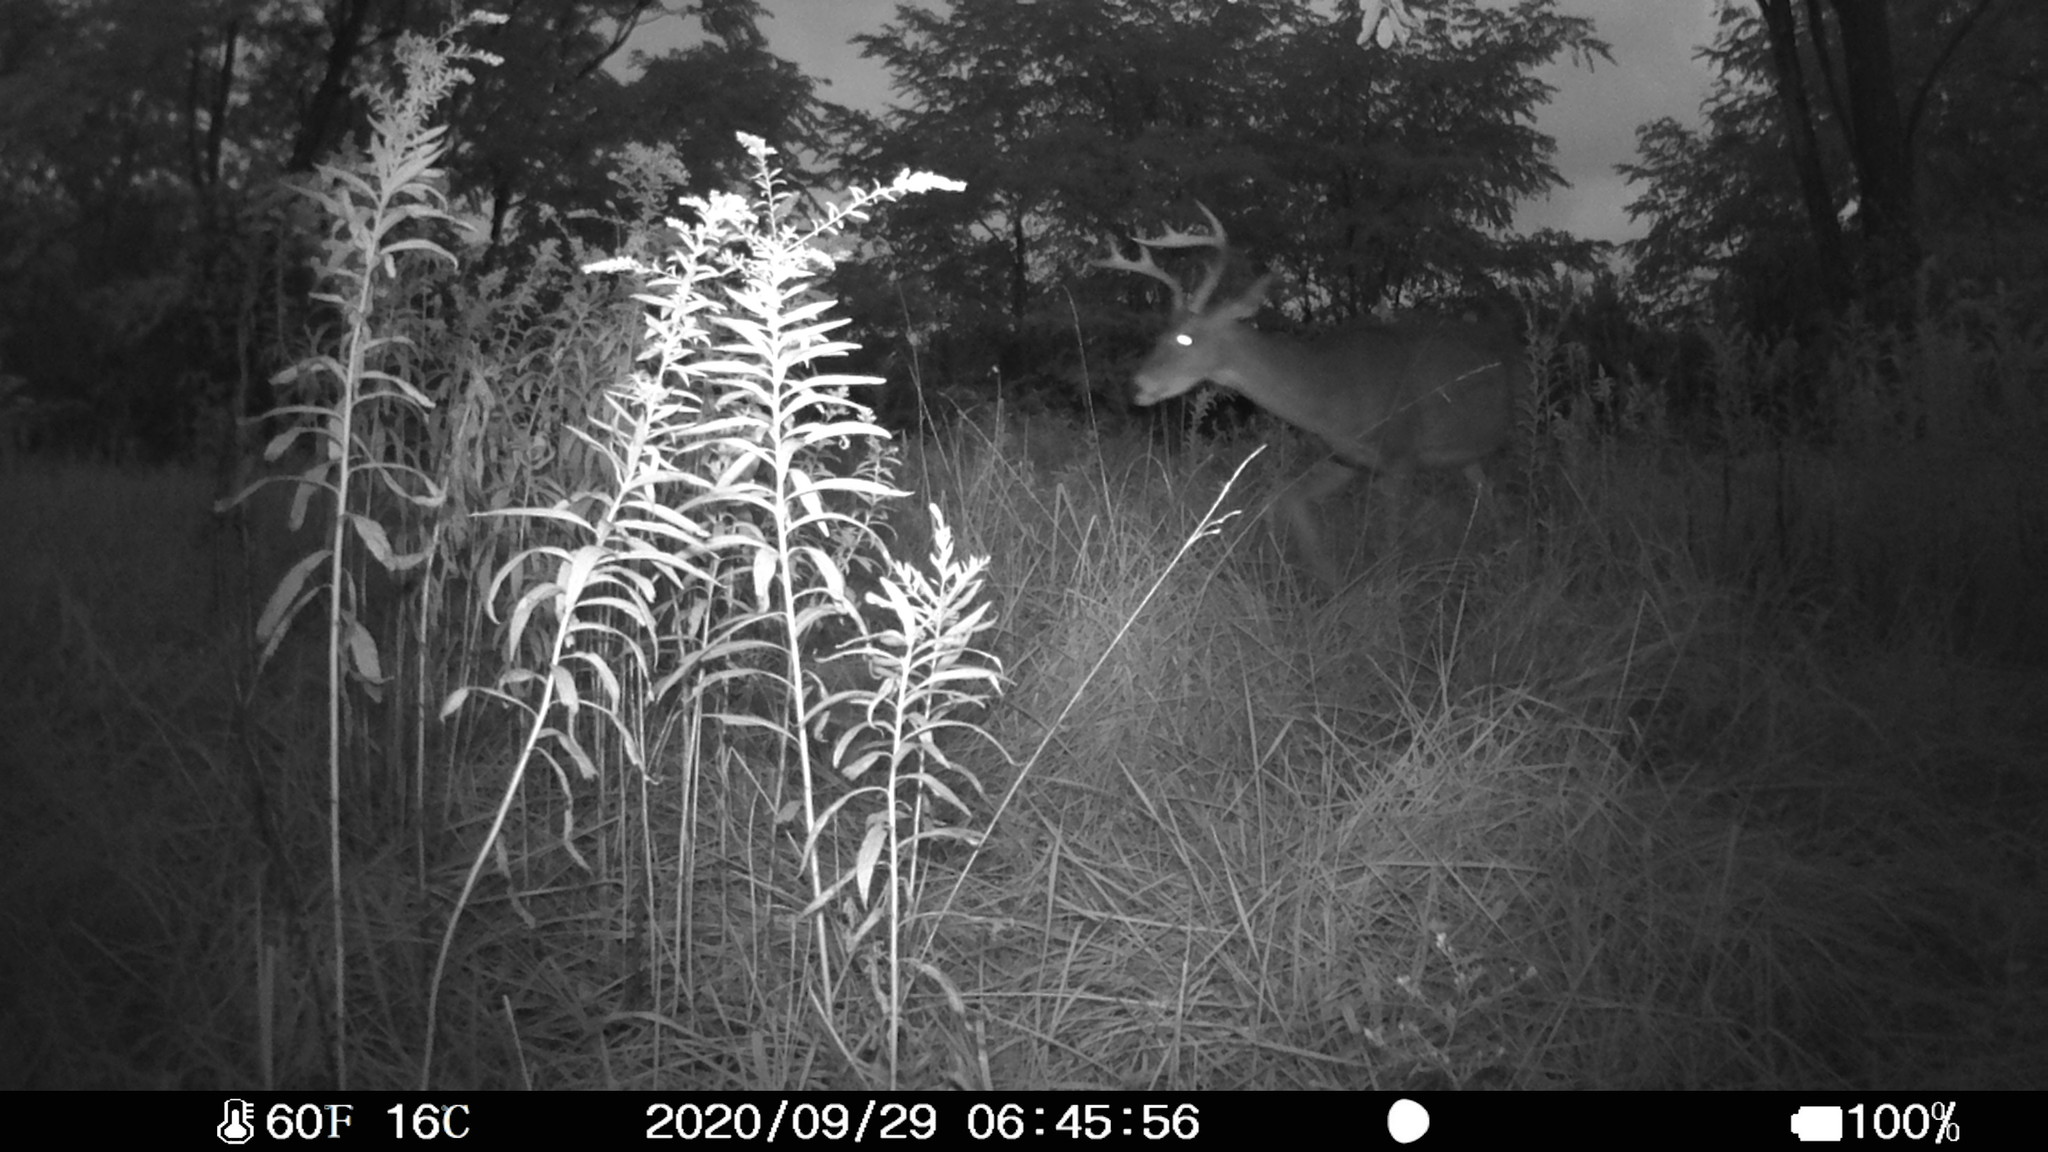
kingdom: Animalia
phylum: Chordata
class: Mammalia
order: Artiodactyla
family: Cervidae
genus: Odocoileus
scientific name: Odocoileus virginianus
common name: White-tailed deer
